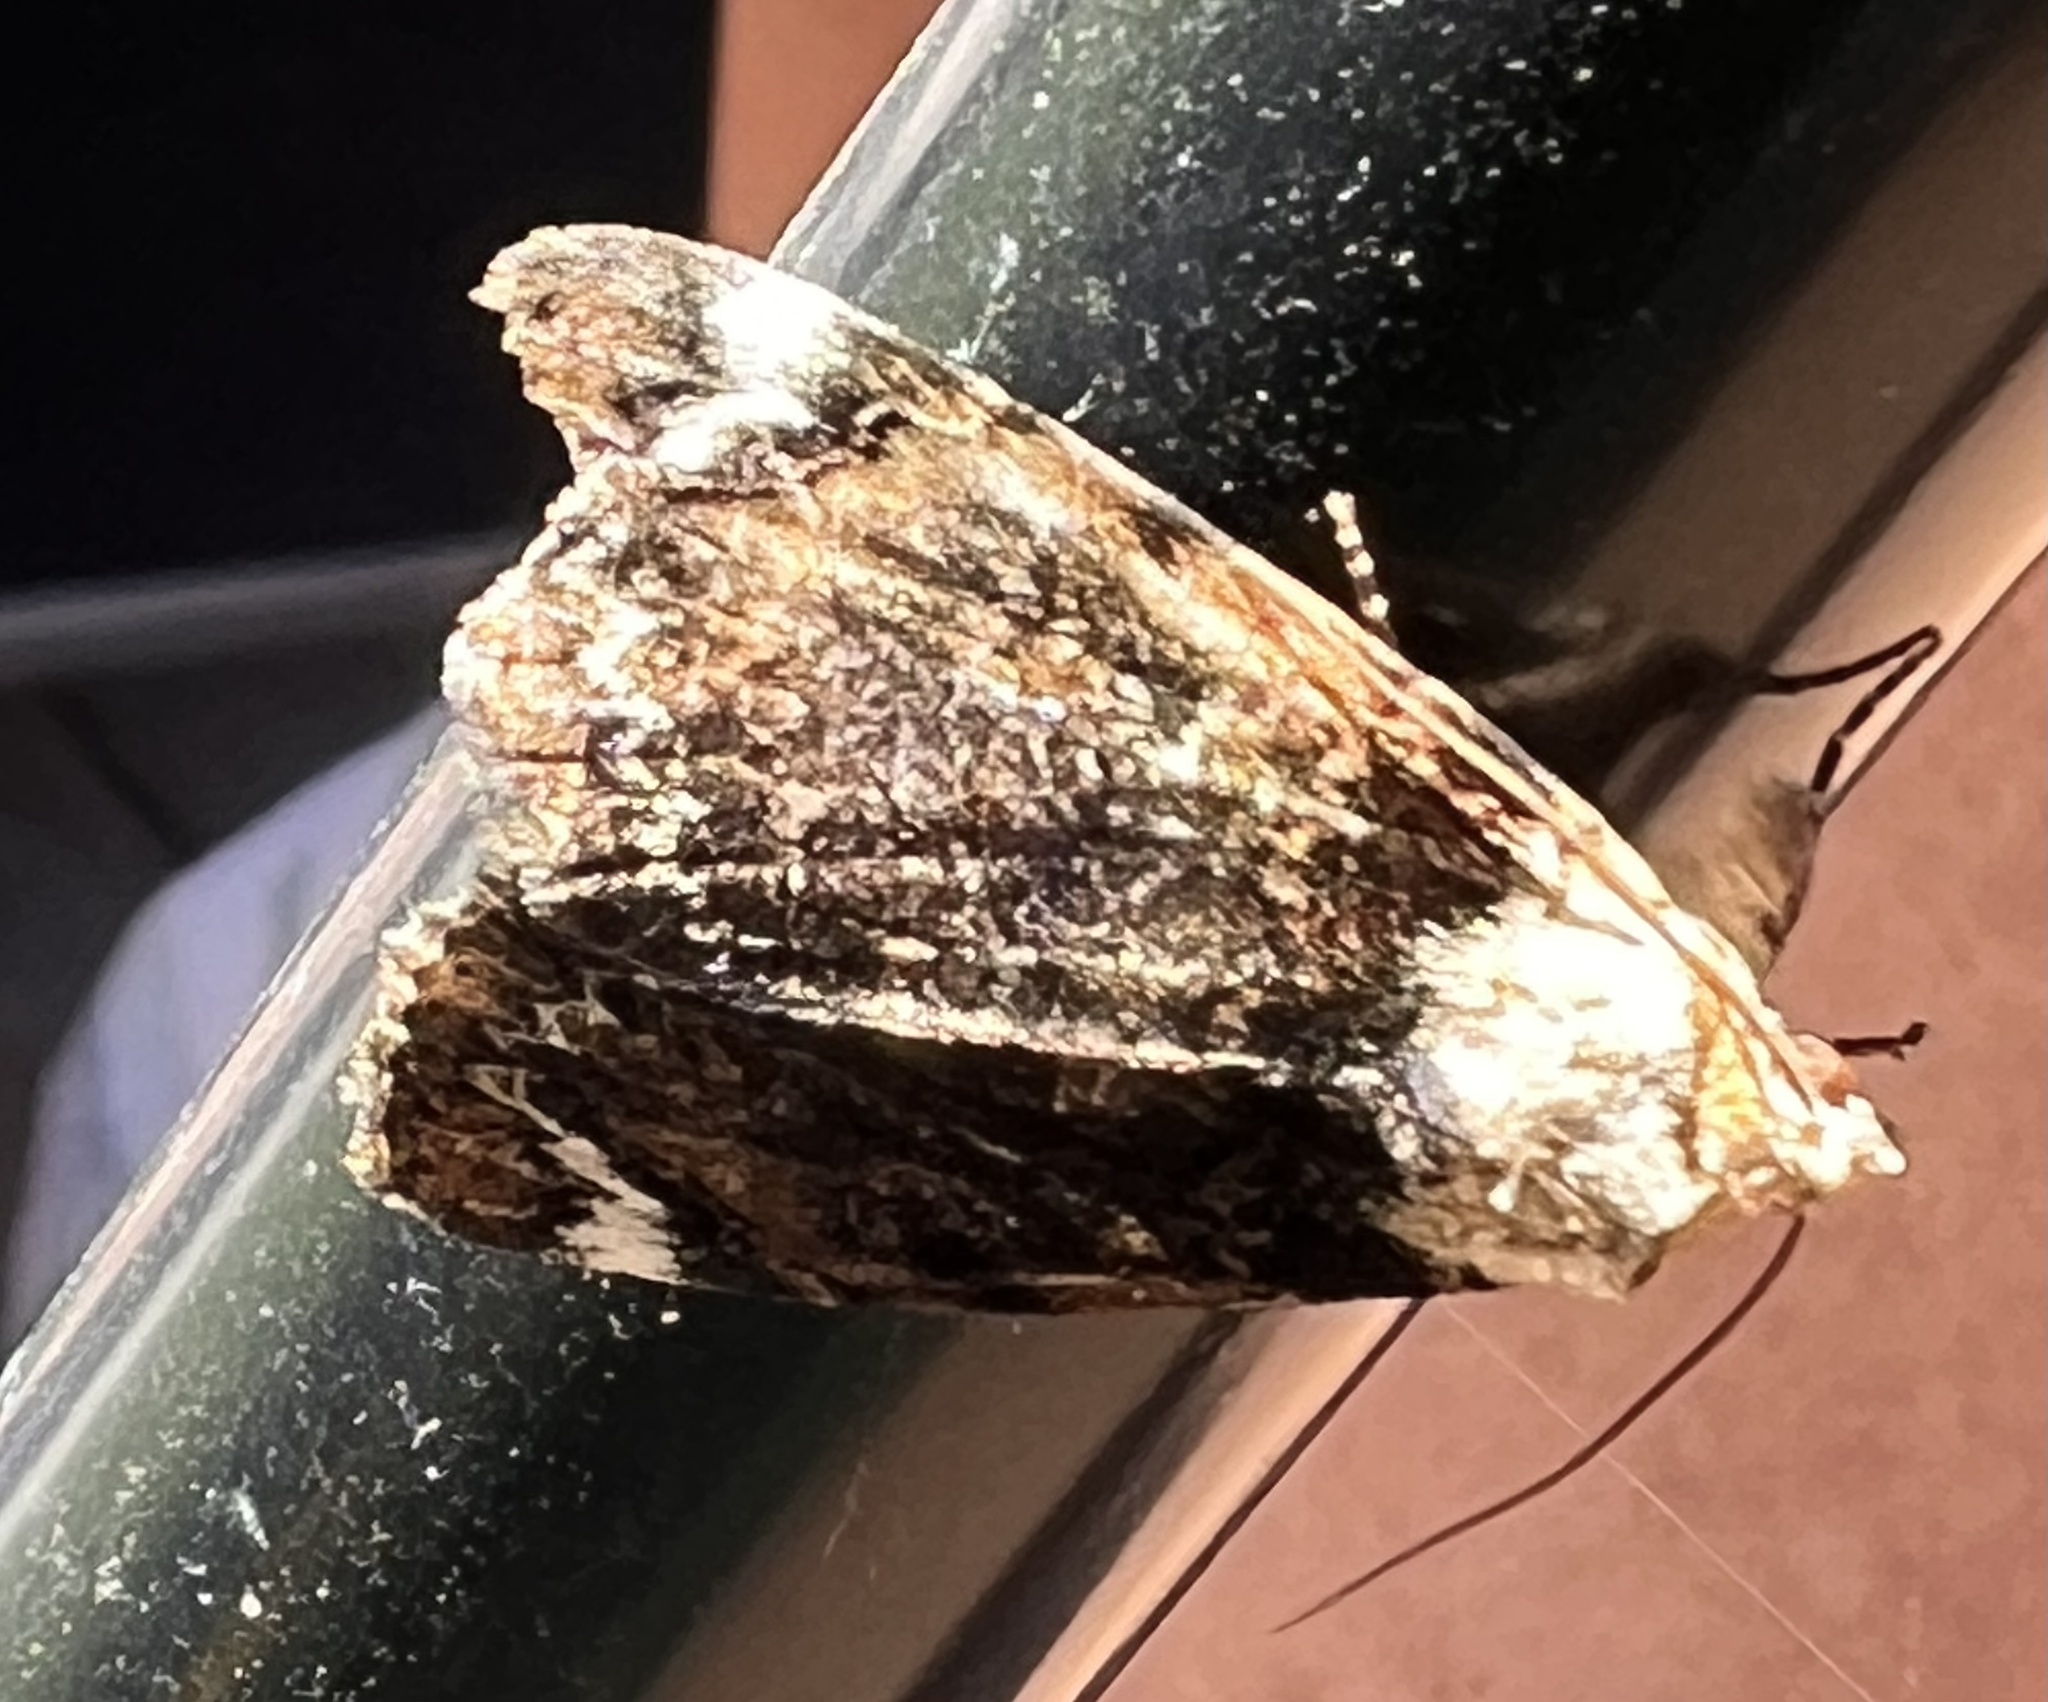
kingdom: Animalia
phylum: Arthropoda
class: Insecta
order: Lepidoptera
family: Erebidae
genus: Catocala
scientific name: Catocala minuta
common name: Little underwing
